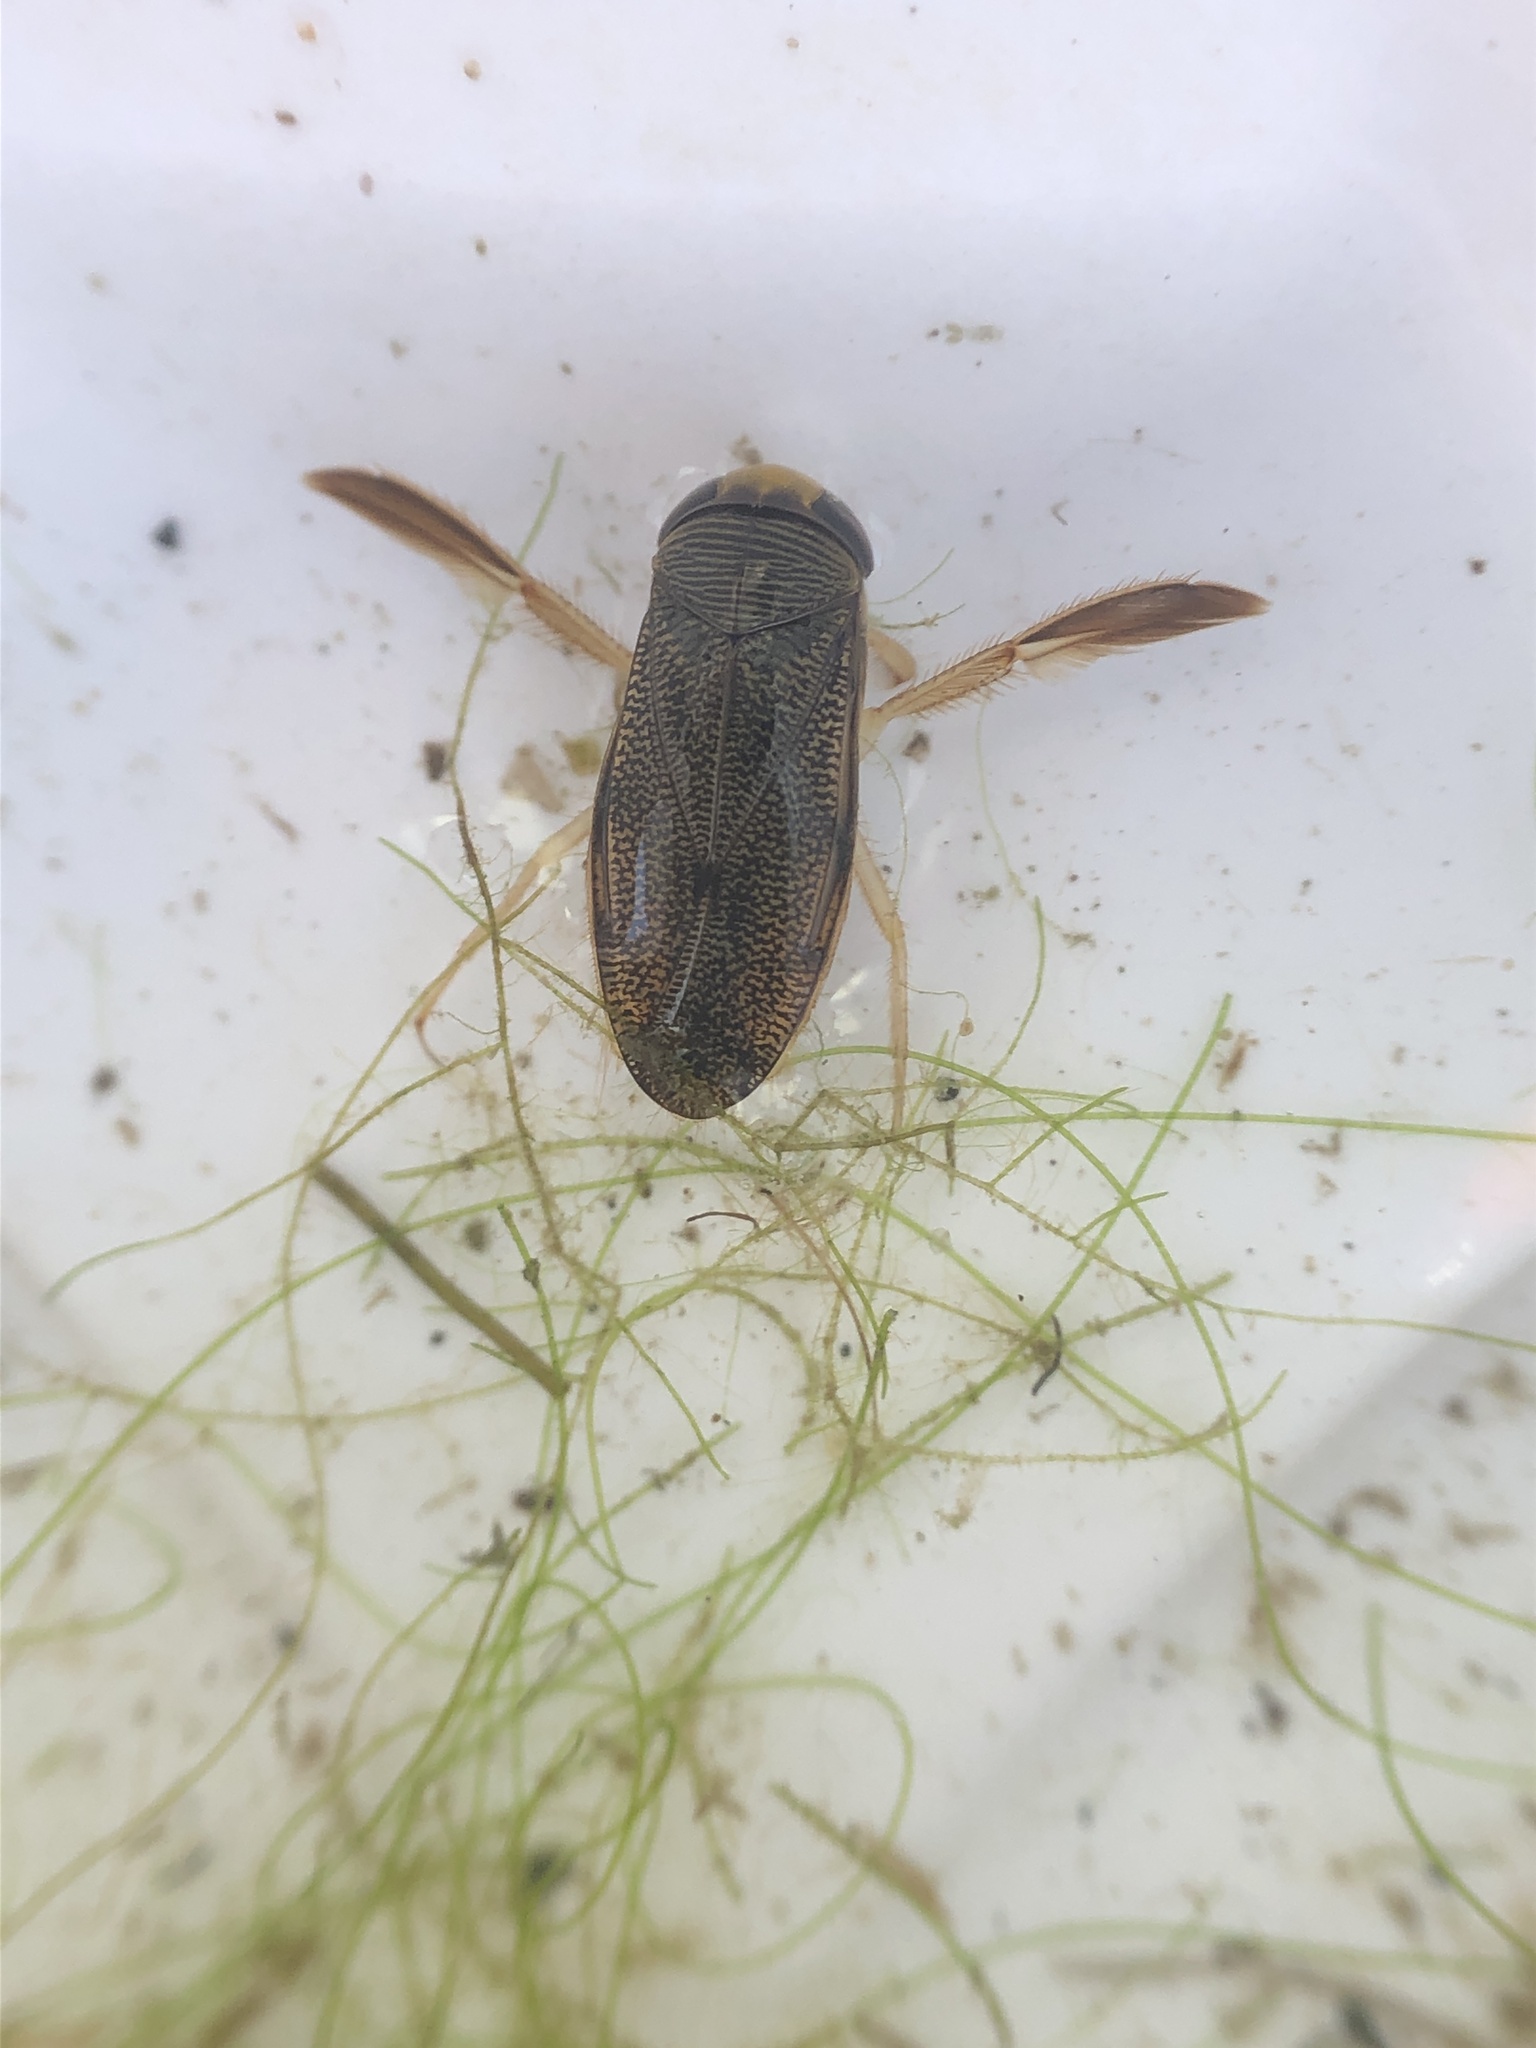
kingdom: Animalia
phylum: Arthropoda
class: Insecta
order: Hemiptera
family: Corixidae
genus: Hesperocorixa
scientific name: Hesperocorixa laevigata
